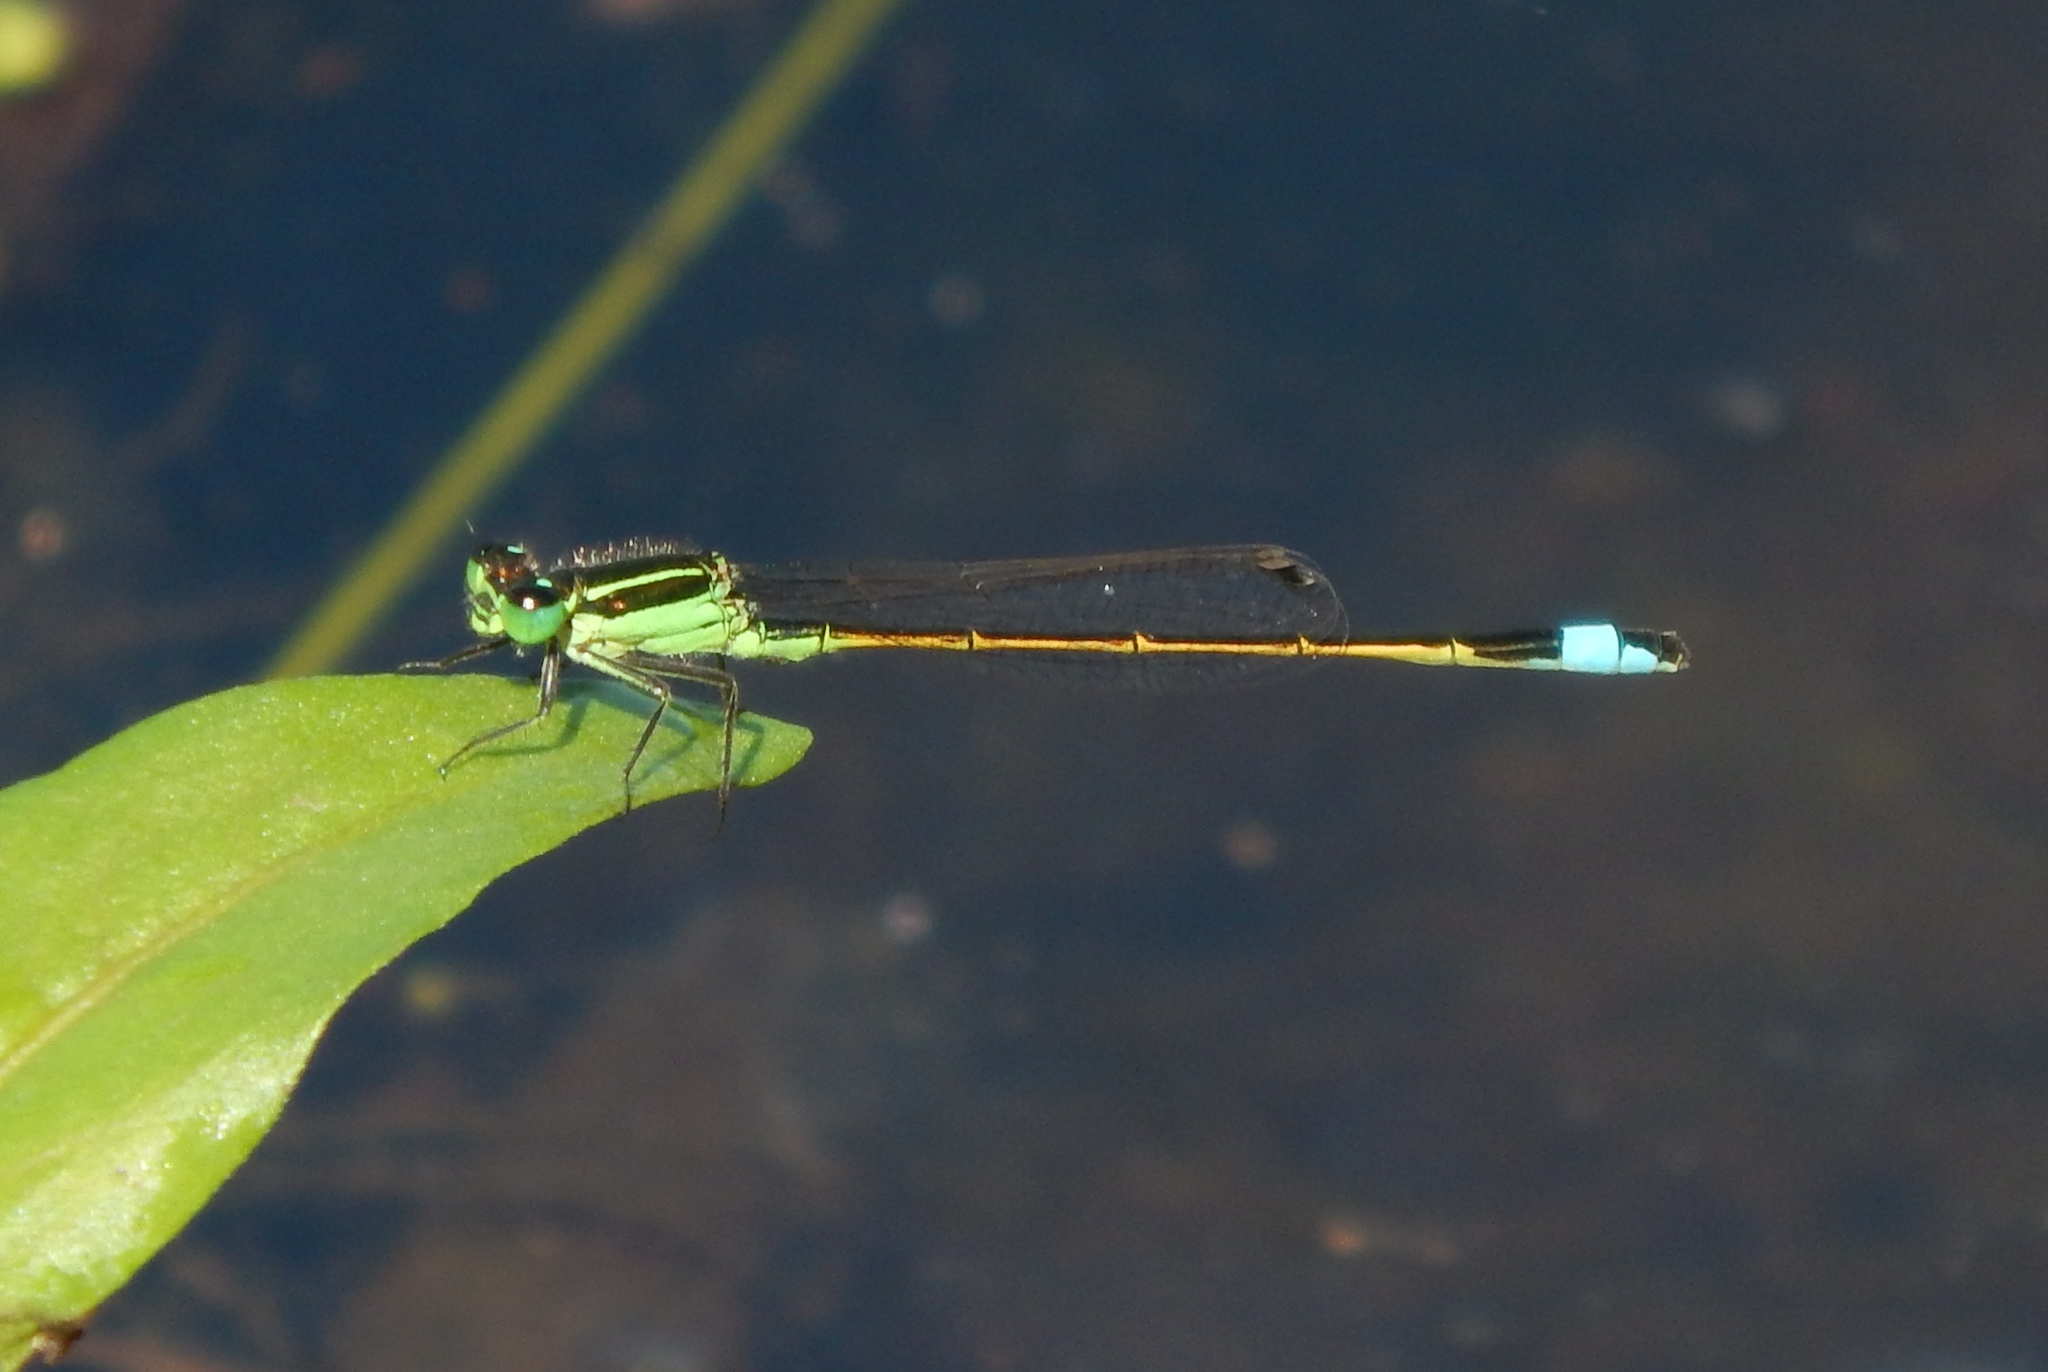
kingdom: Animalia
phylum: Arthropoda
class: Insecta
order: Odonata
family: Coenagrionidae
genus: Ischnura
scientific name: Ischnura ramburii
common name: Rambur's forktail
